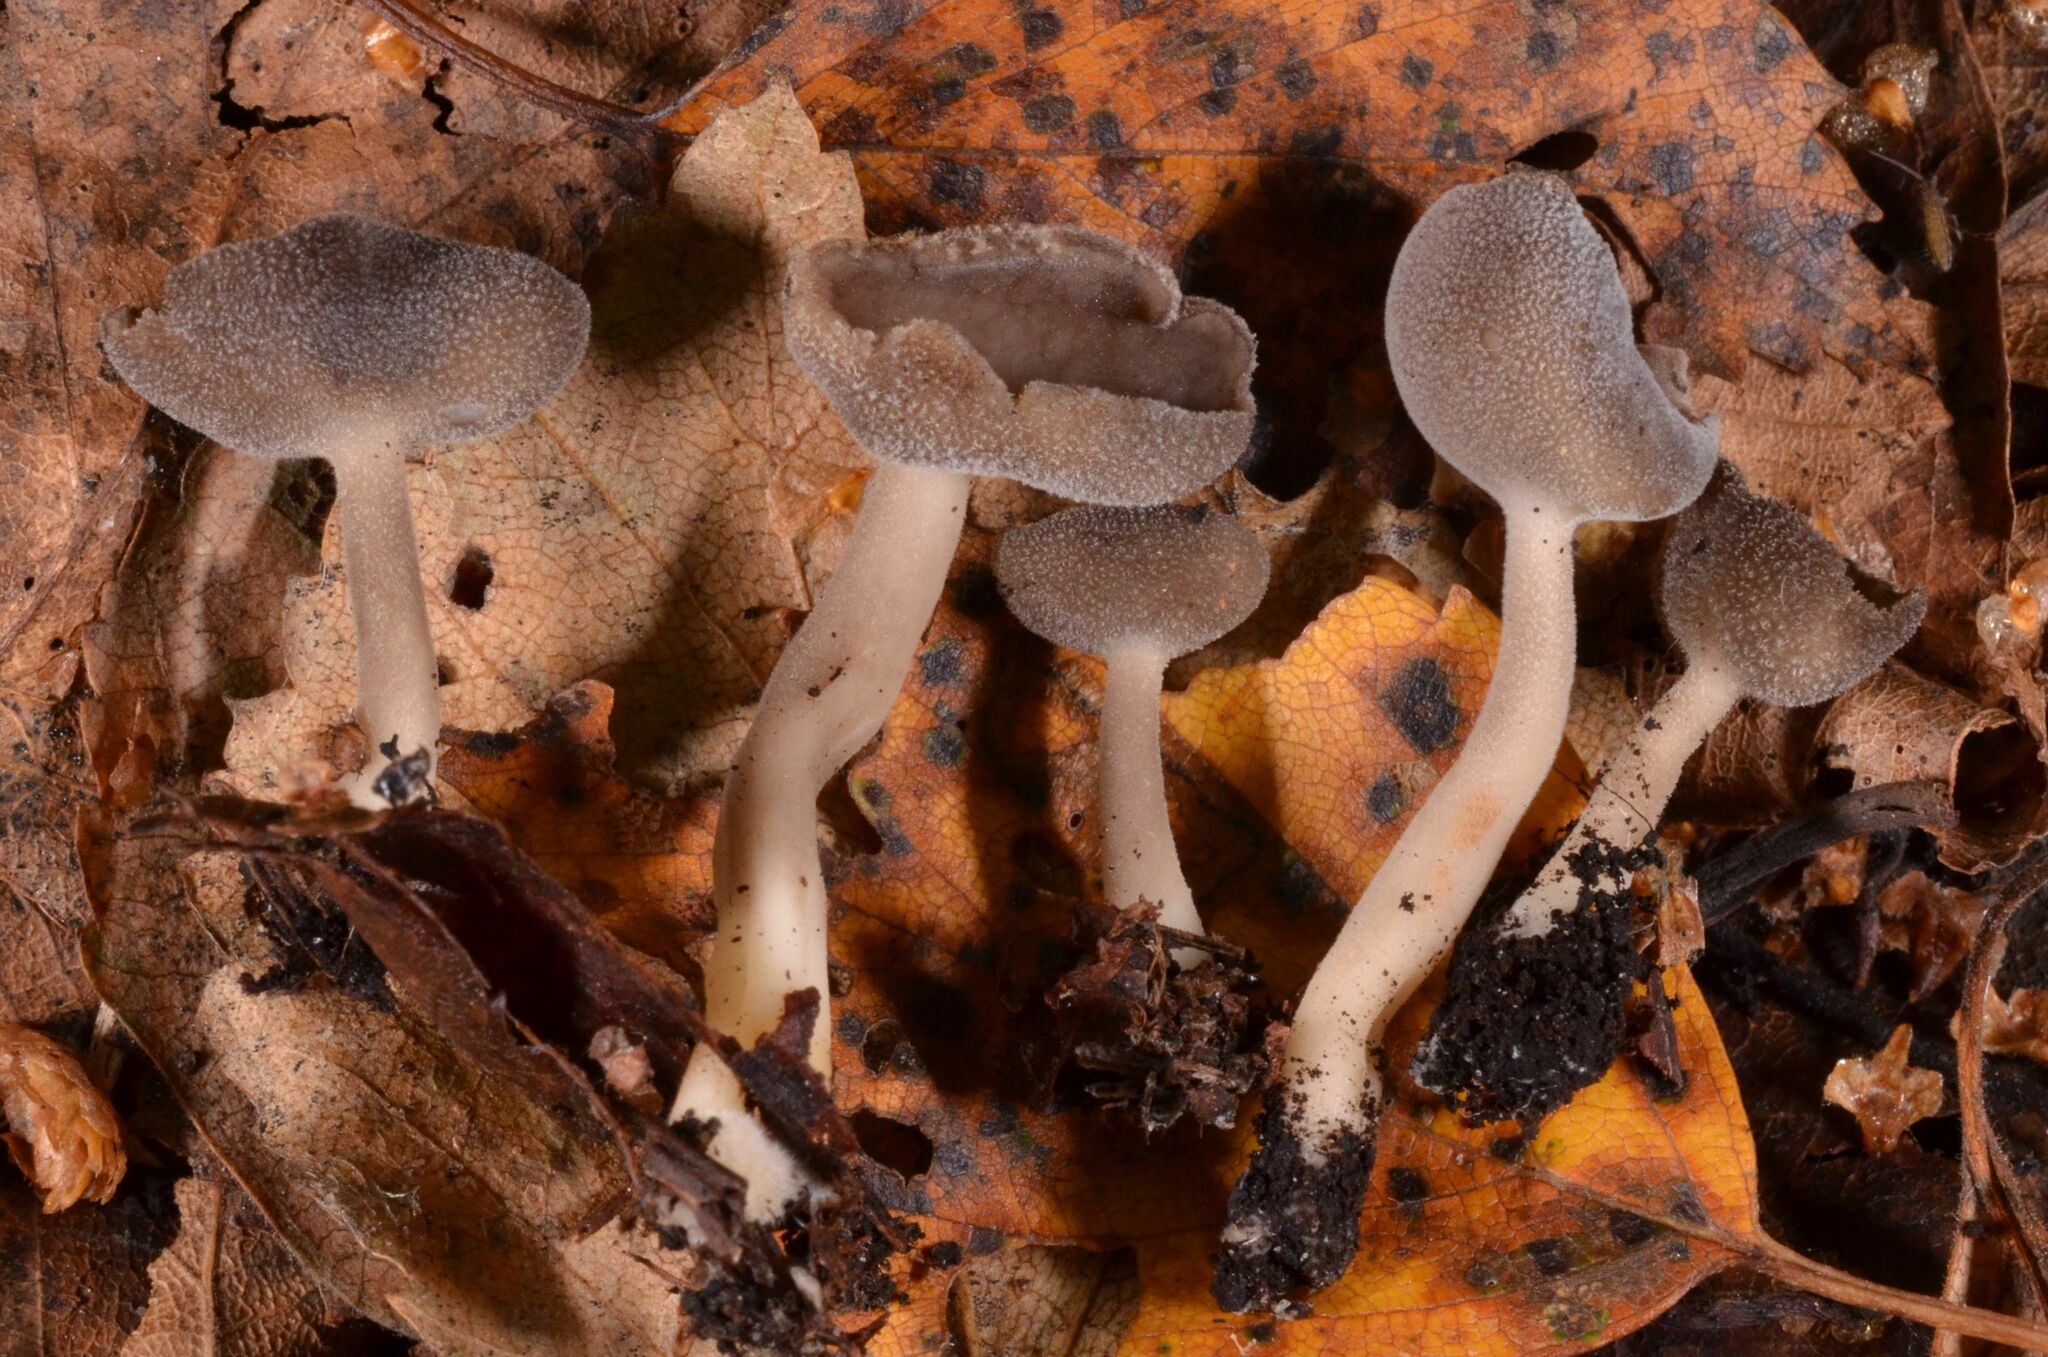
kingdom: Fungi
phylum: Ascomycota
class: Pezizomycetes
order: Pezizales
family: Helvellaceae
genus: Helvella
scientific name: Helvella fibrosa
